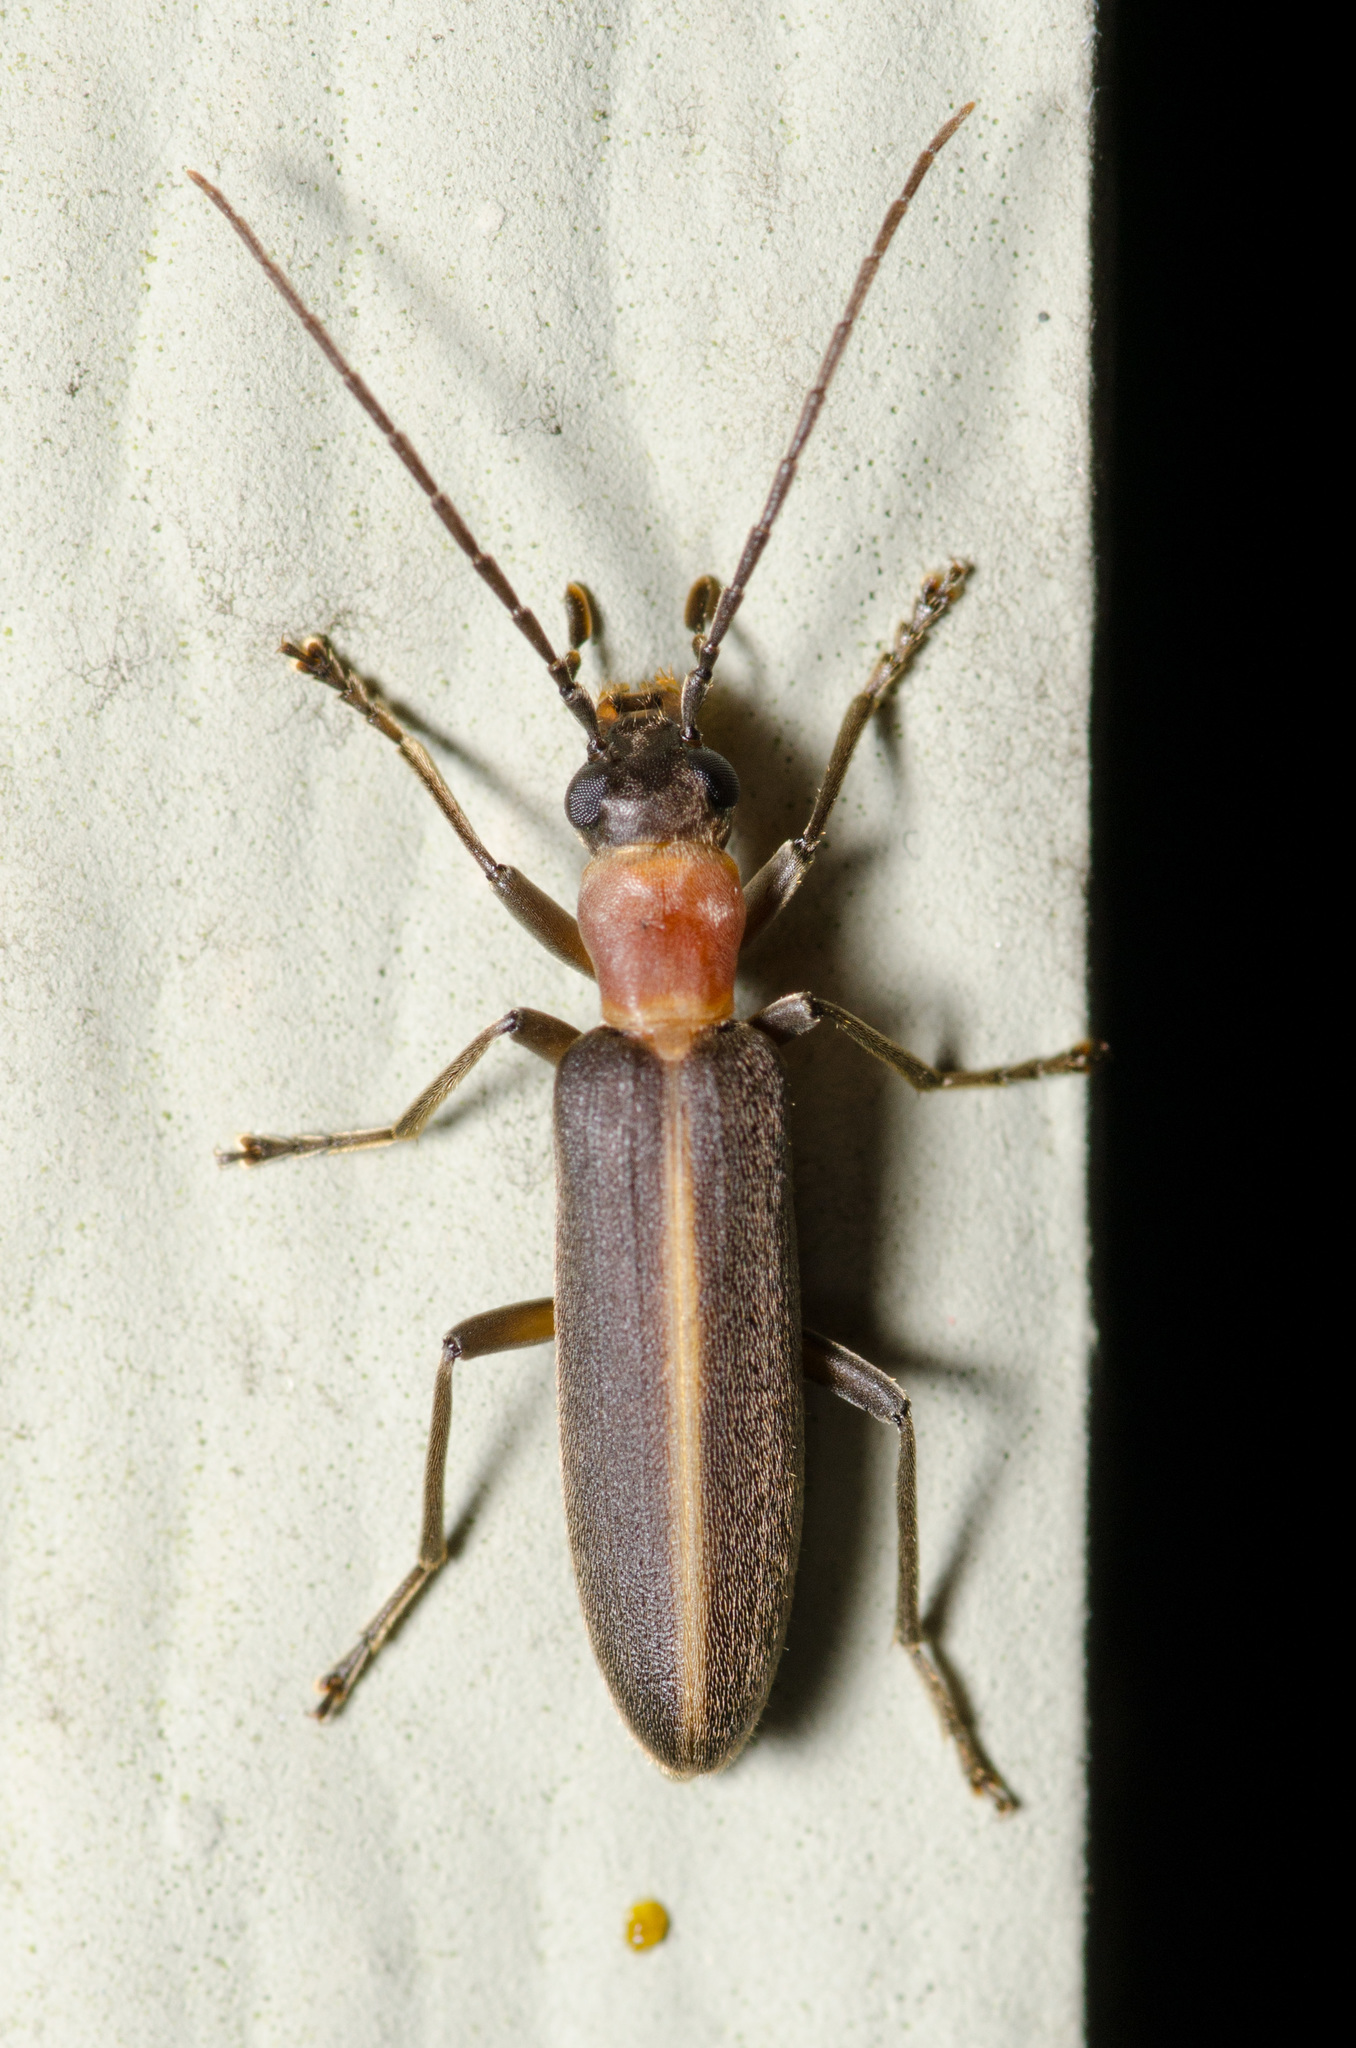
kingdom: Animalia
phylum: Arthropoda
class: Insecta
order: Coleoptera
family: Oedemeridae
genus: Oxycopis
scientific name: Oxycopis mimetica
